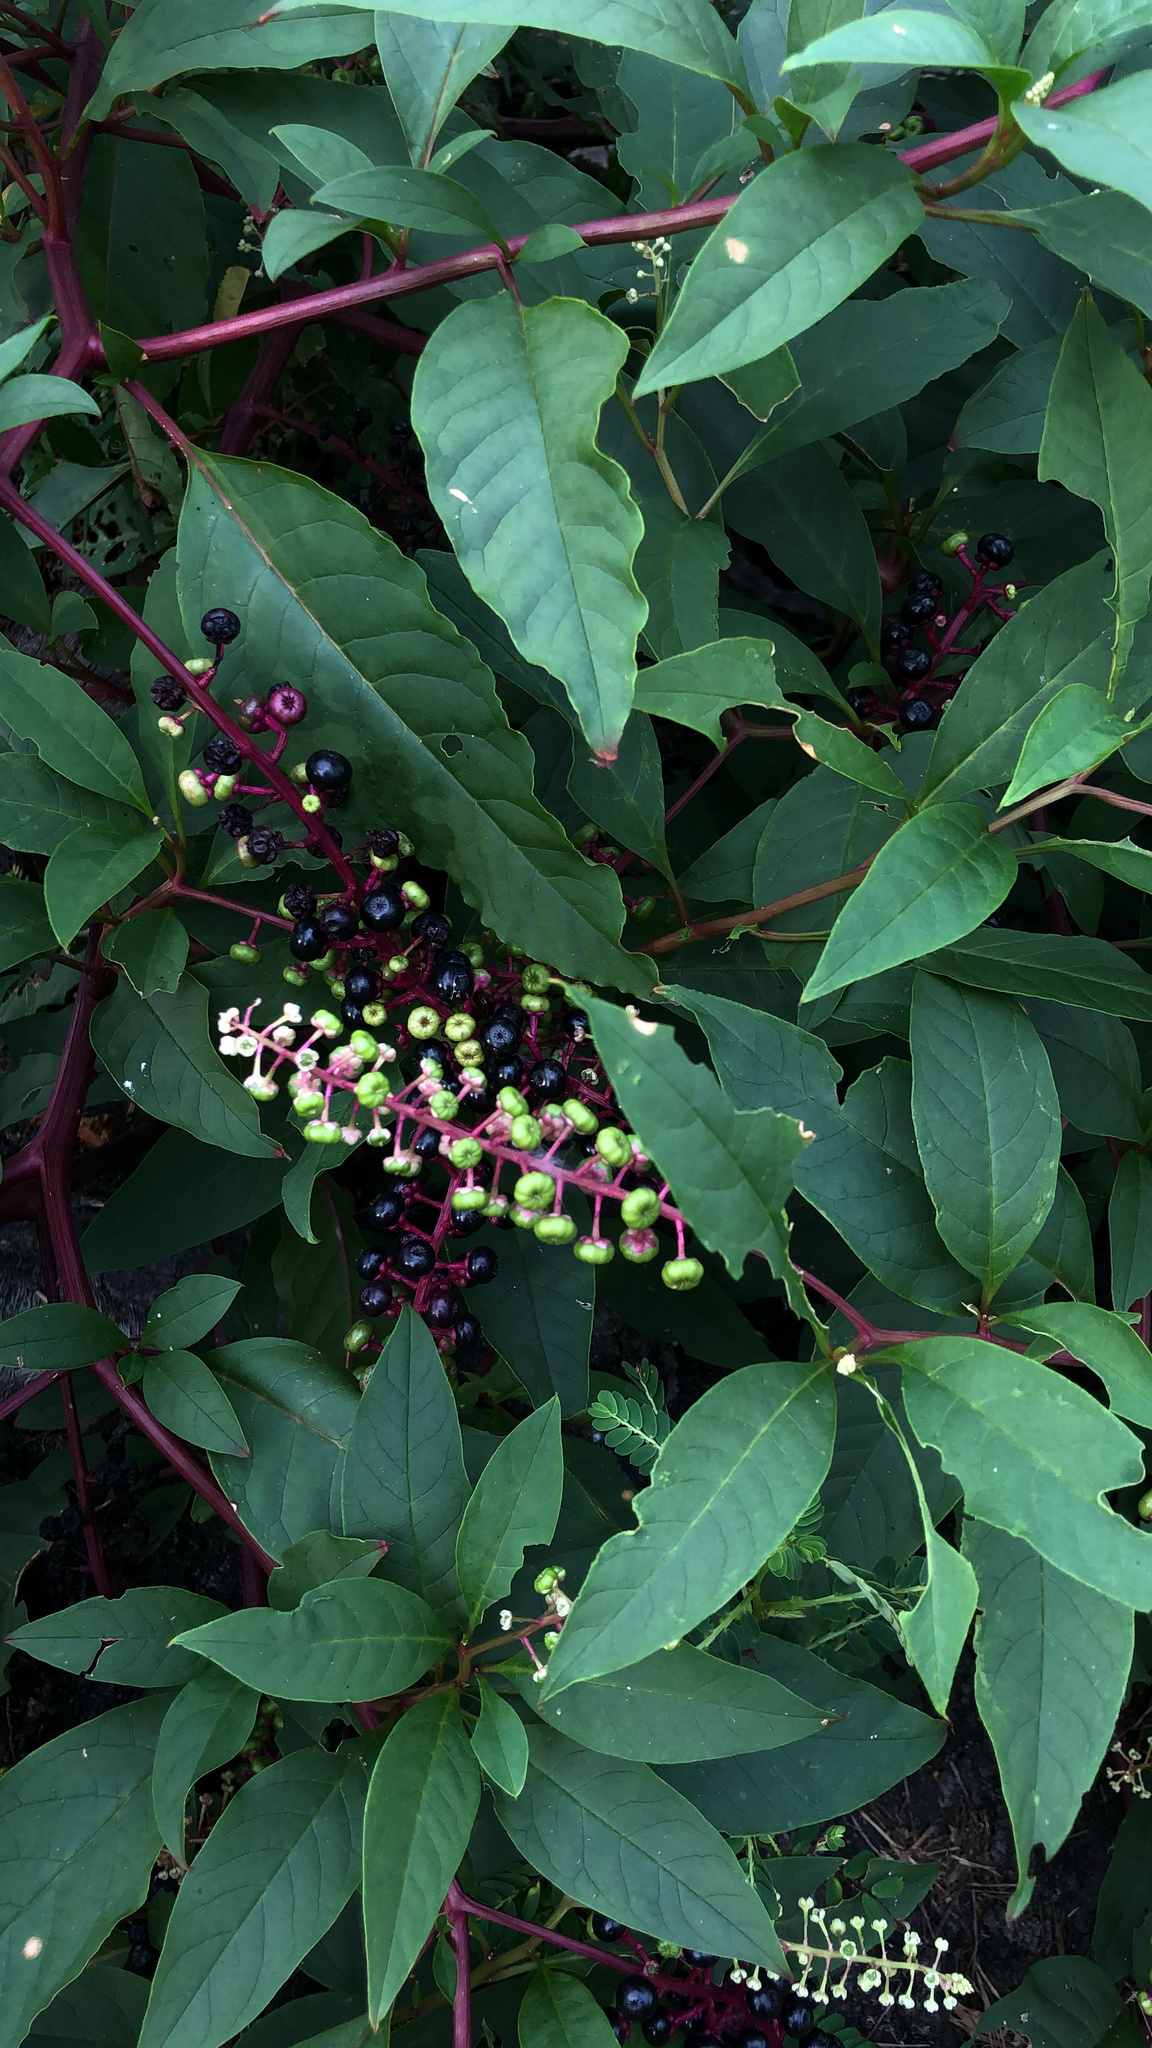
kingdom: Plantae
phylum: Tracheophyta
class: Magnoliopsida
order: Caryophyllales
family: Phytolaccaceae
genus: Phytolacca
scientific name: Phytolacca americana
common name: American pokeweed
